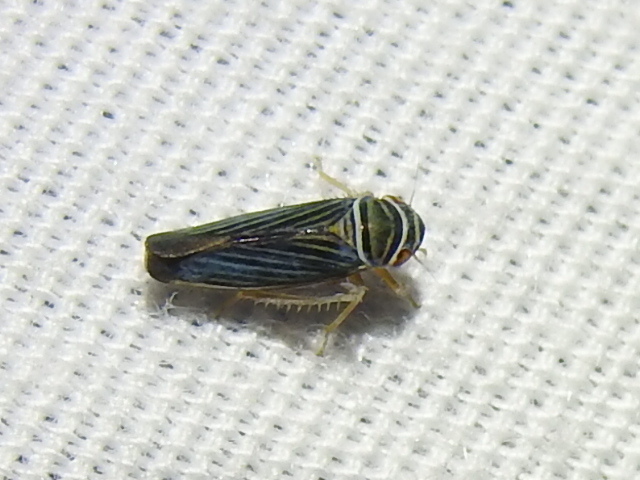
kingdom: Animalia
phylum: Arthropoda
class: Insecta
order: Hemiptera
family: Cicadellidae
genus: Tylozygus
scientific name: Tylozygus bifidus
